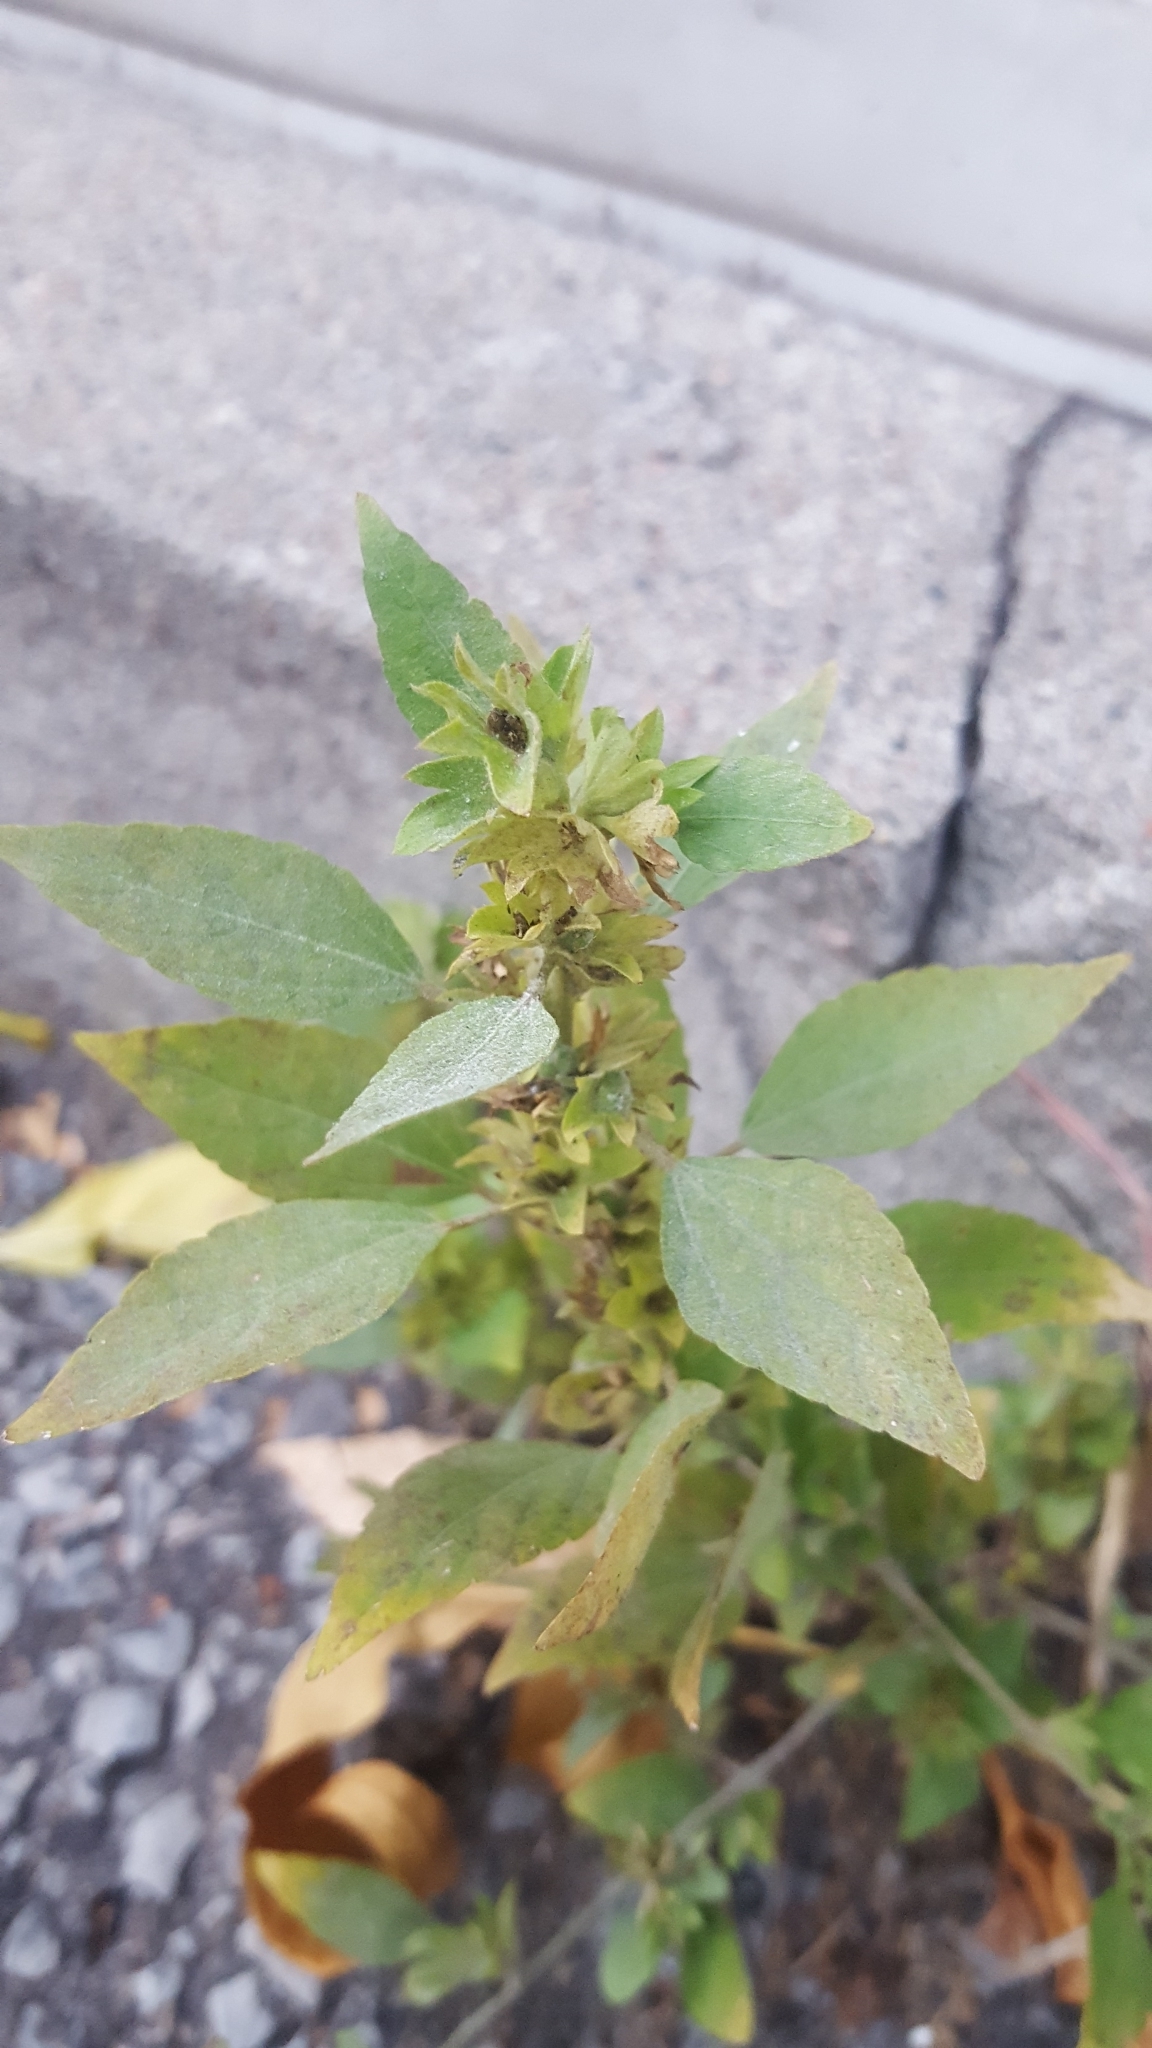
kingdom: Plantae
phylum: Tracheophyta
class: Magnoliopsida
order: Malpighiales
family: Euphorbiaceae
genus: Acalypha
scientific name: Acalypha rhomboidea
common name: Rhombic copperleaf
